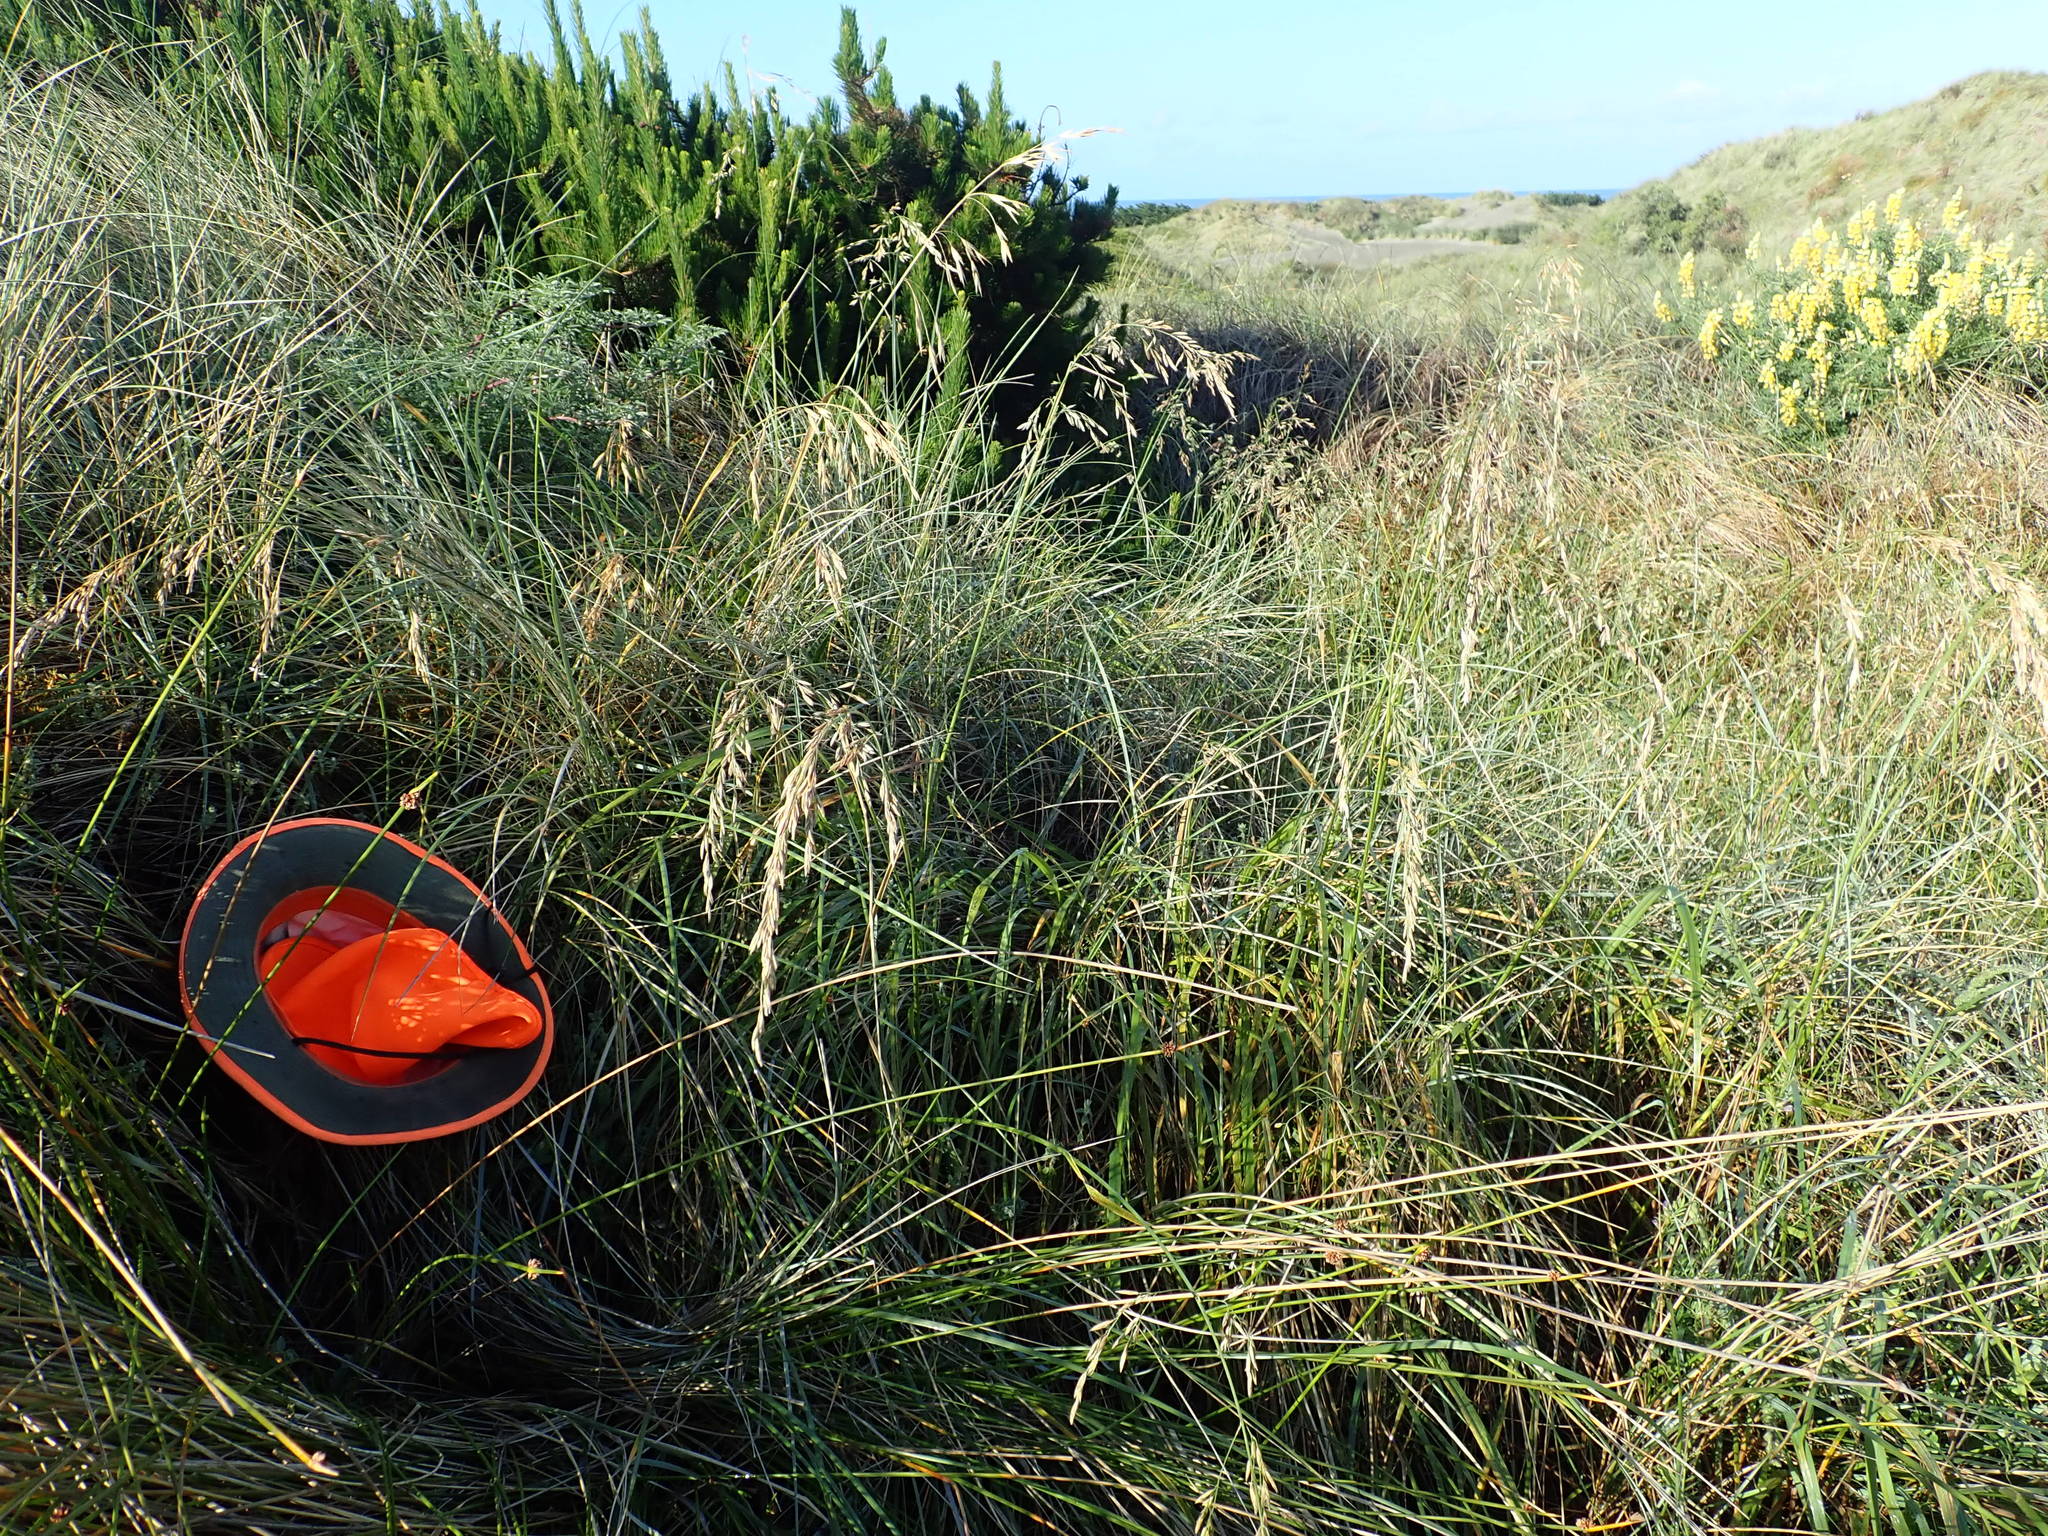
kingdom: Plantae
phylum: Tracheophyta
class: Magnoliopsida
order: Malvales
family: Thymelaeaceae
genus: Pimelea
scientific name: Pimelea villosa
